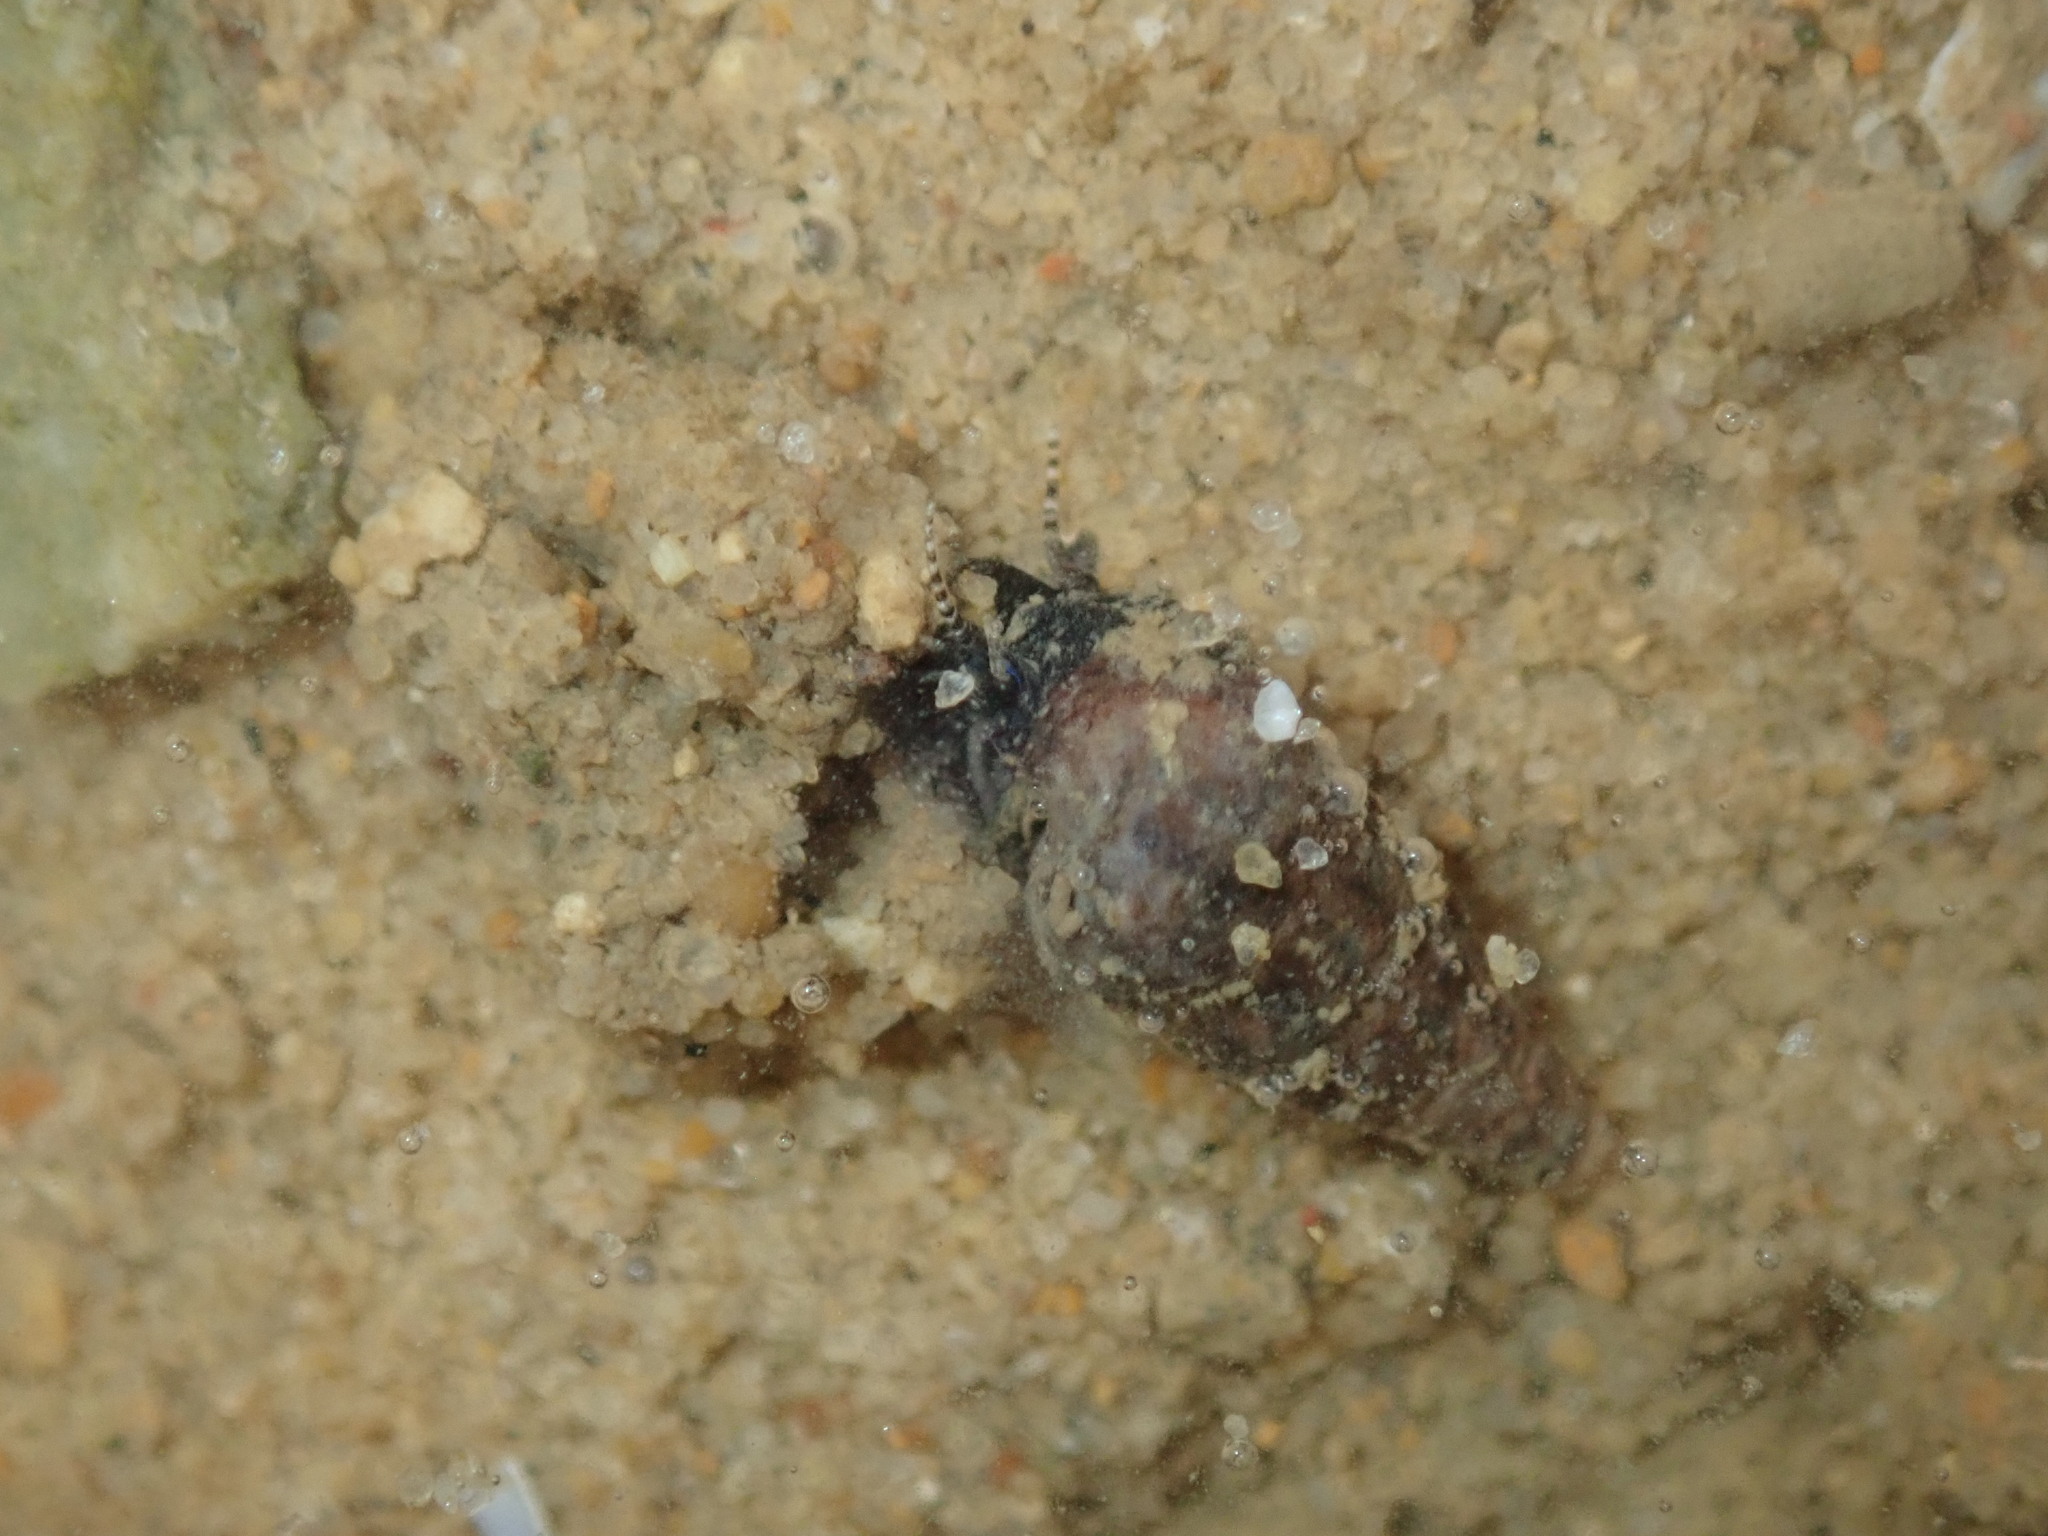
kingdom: Animalia
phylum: Mollusca
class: Gastropoda
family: Batillariidae
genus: Zeacumantus
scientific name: Zeacumantus subcarinatus
